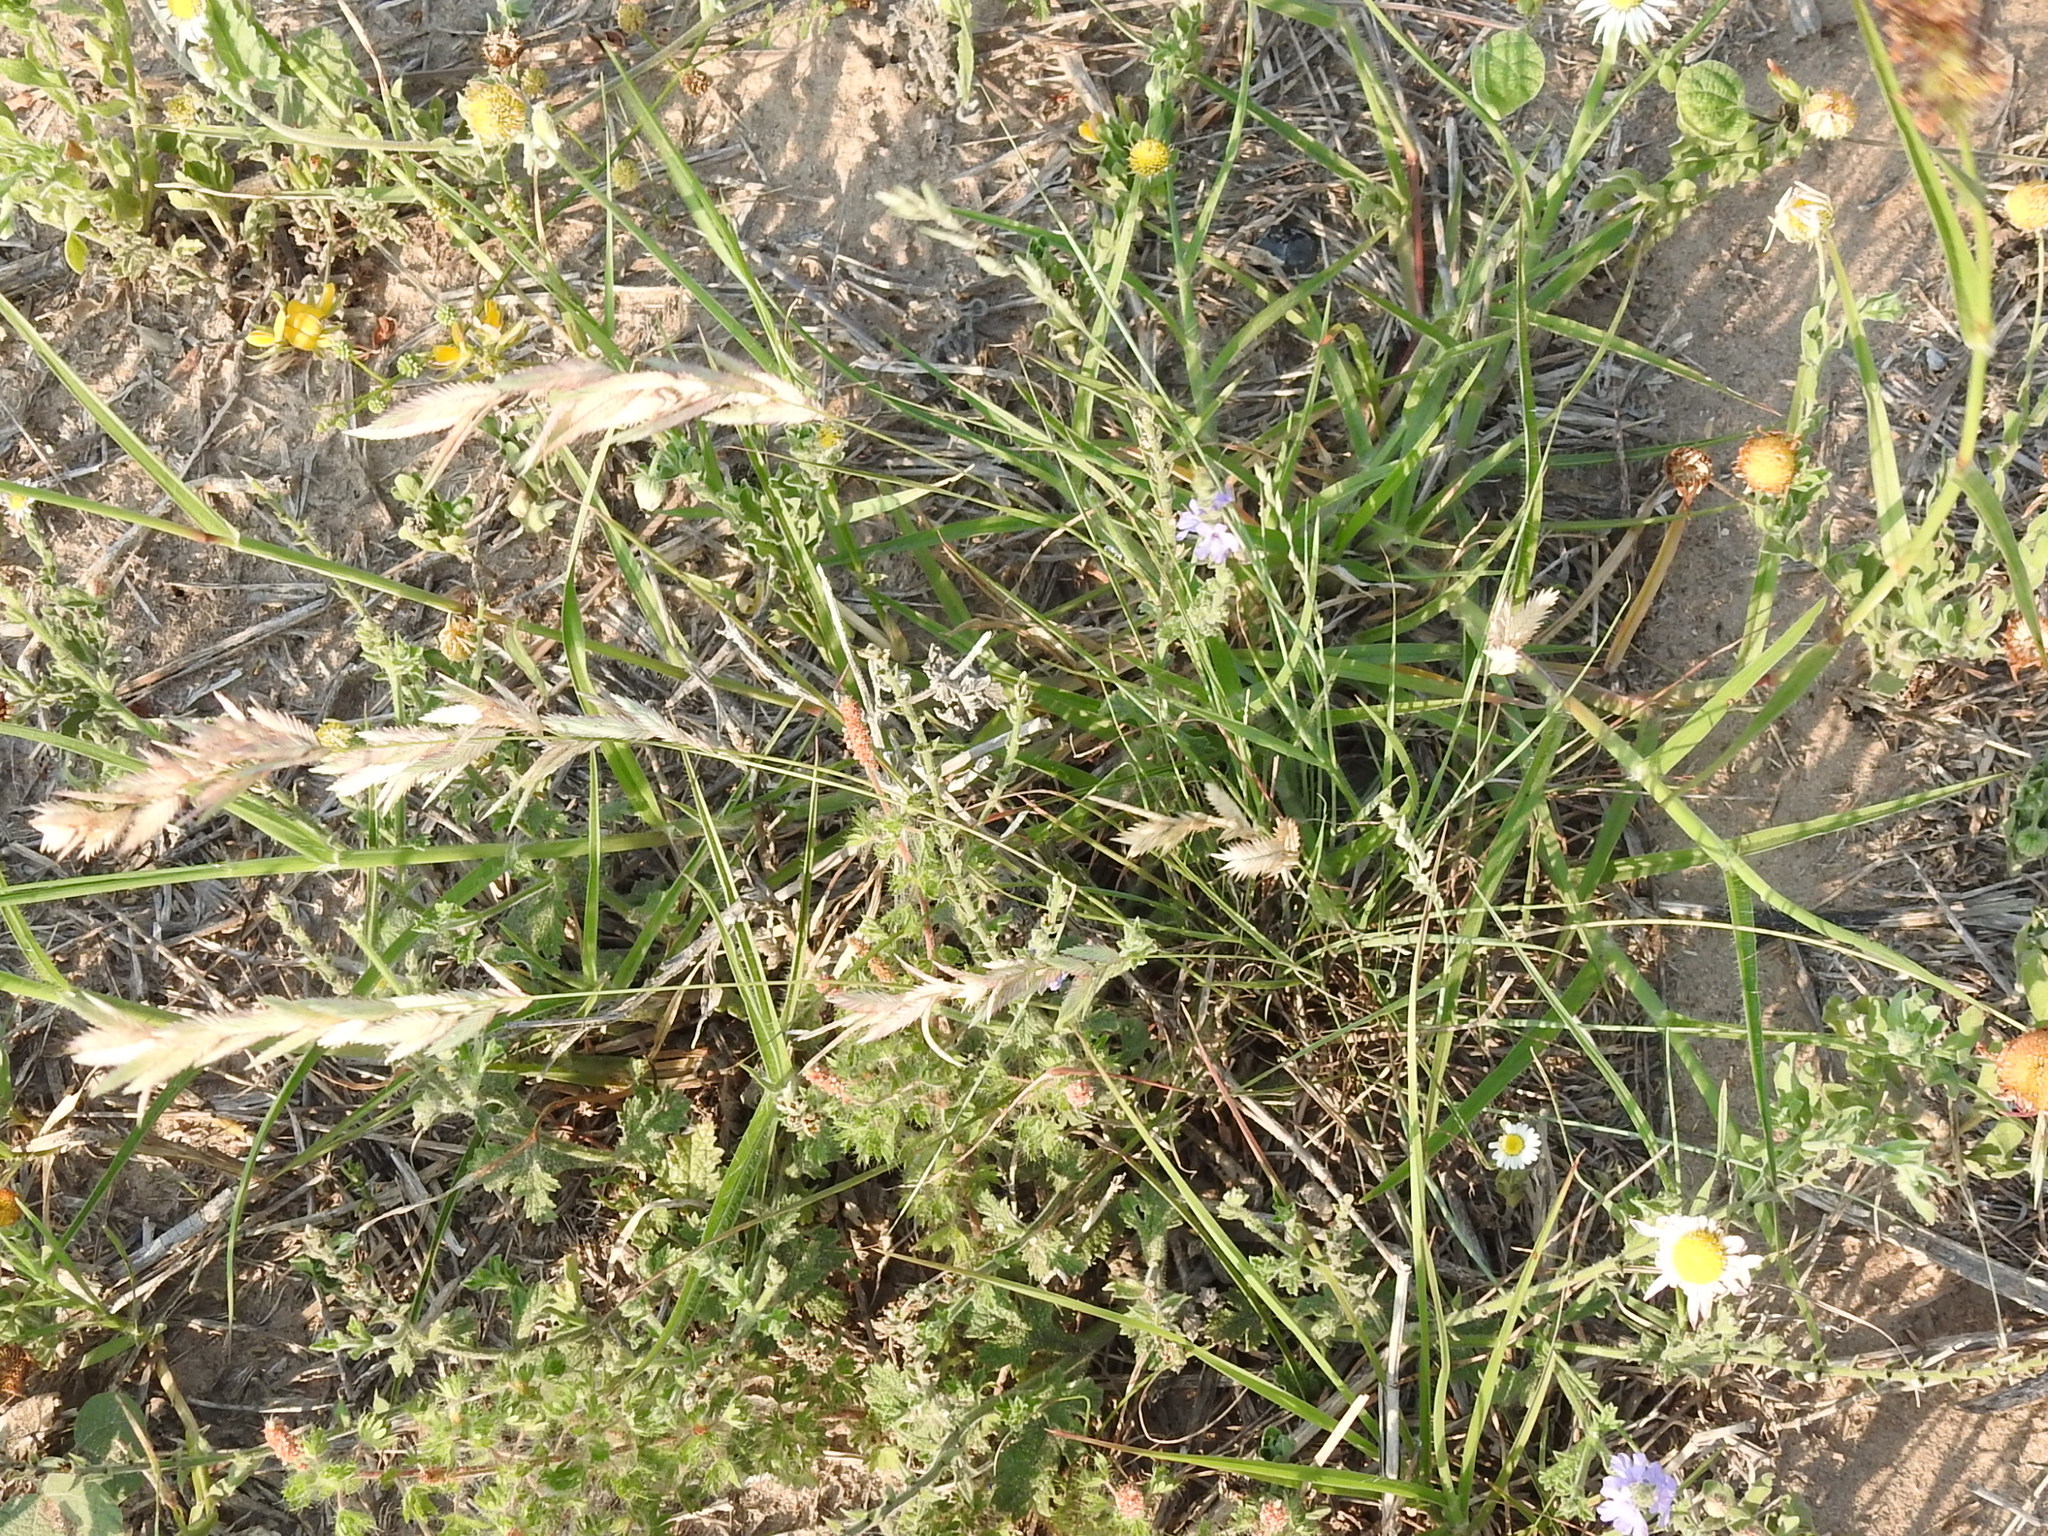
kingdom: Plantae
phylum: Tracheophyta
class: Liliopsida
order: Poales
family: Poaceae
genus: Eragrostis
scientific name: Eragrostis secundiflora
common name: Red love grass
